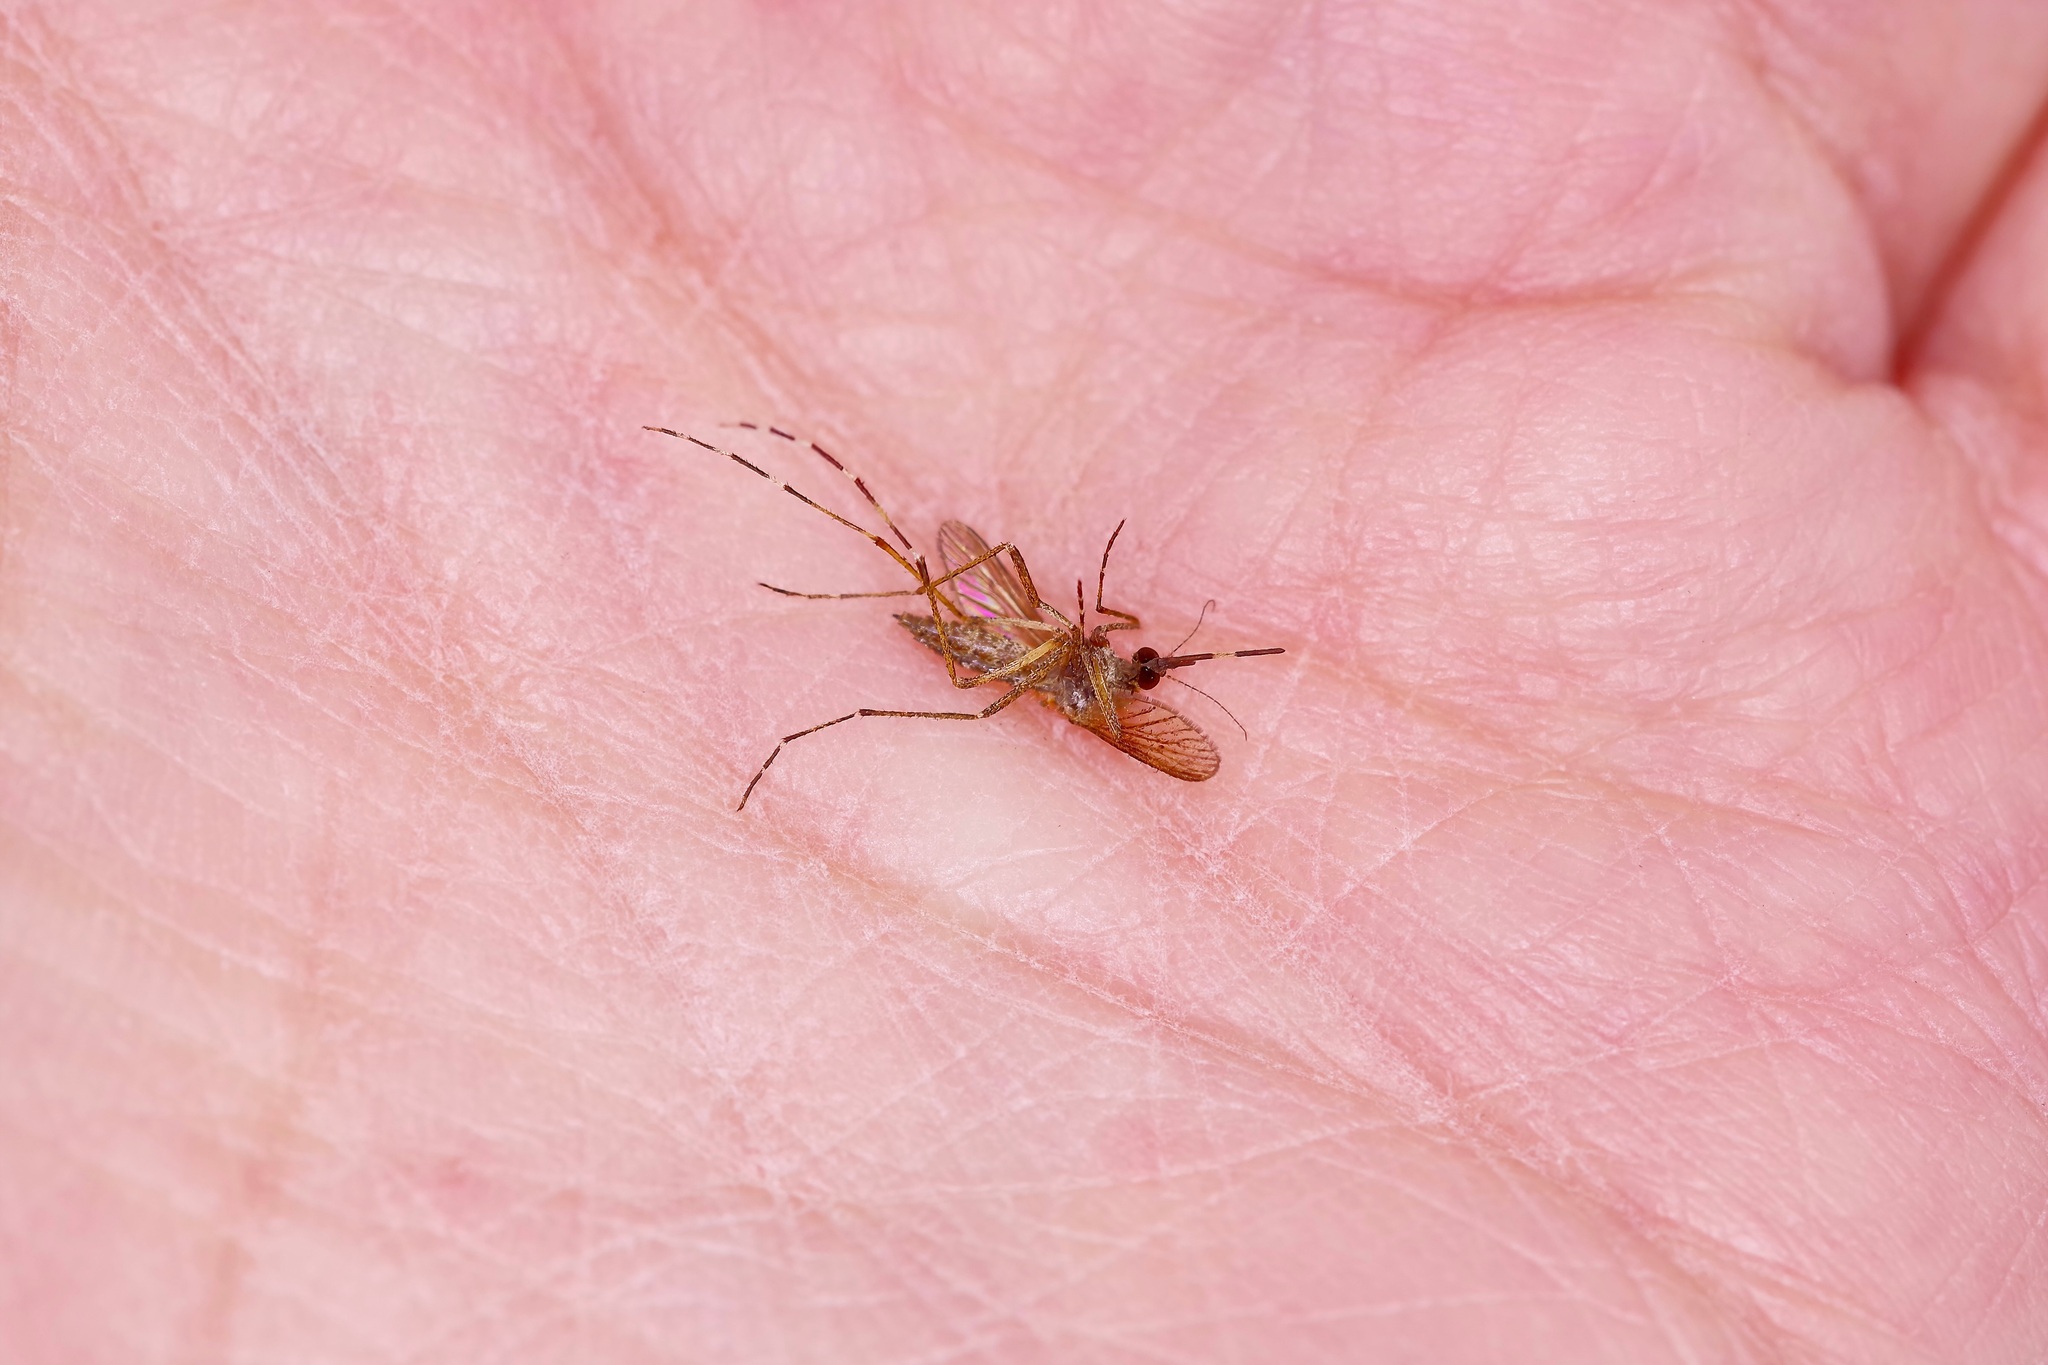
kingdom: Animalia
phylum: Arthropoda
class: Insecta
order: Diptera
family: Culicidae
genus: Aedes
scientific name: Aedes sollicitans
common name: Saltmarsh mosquito
